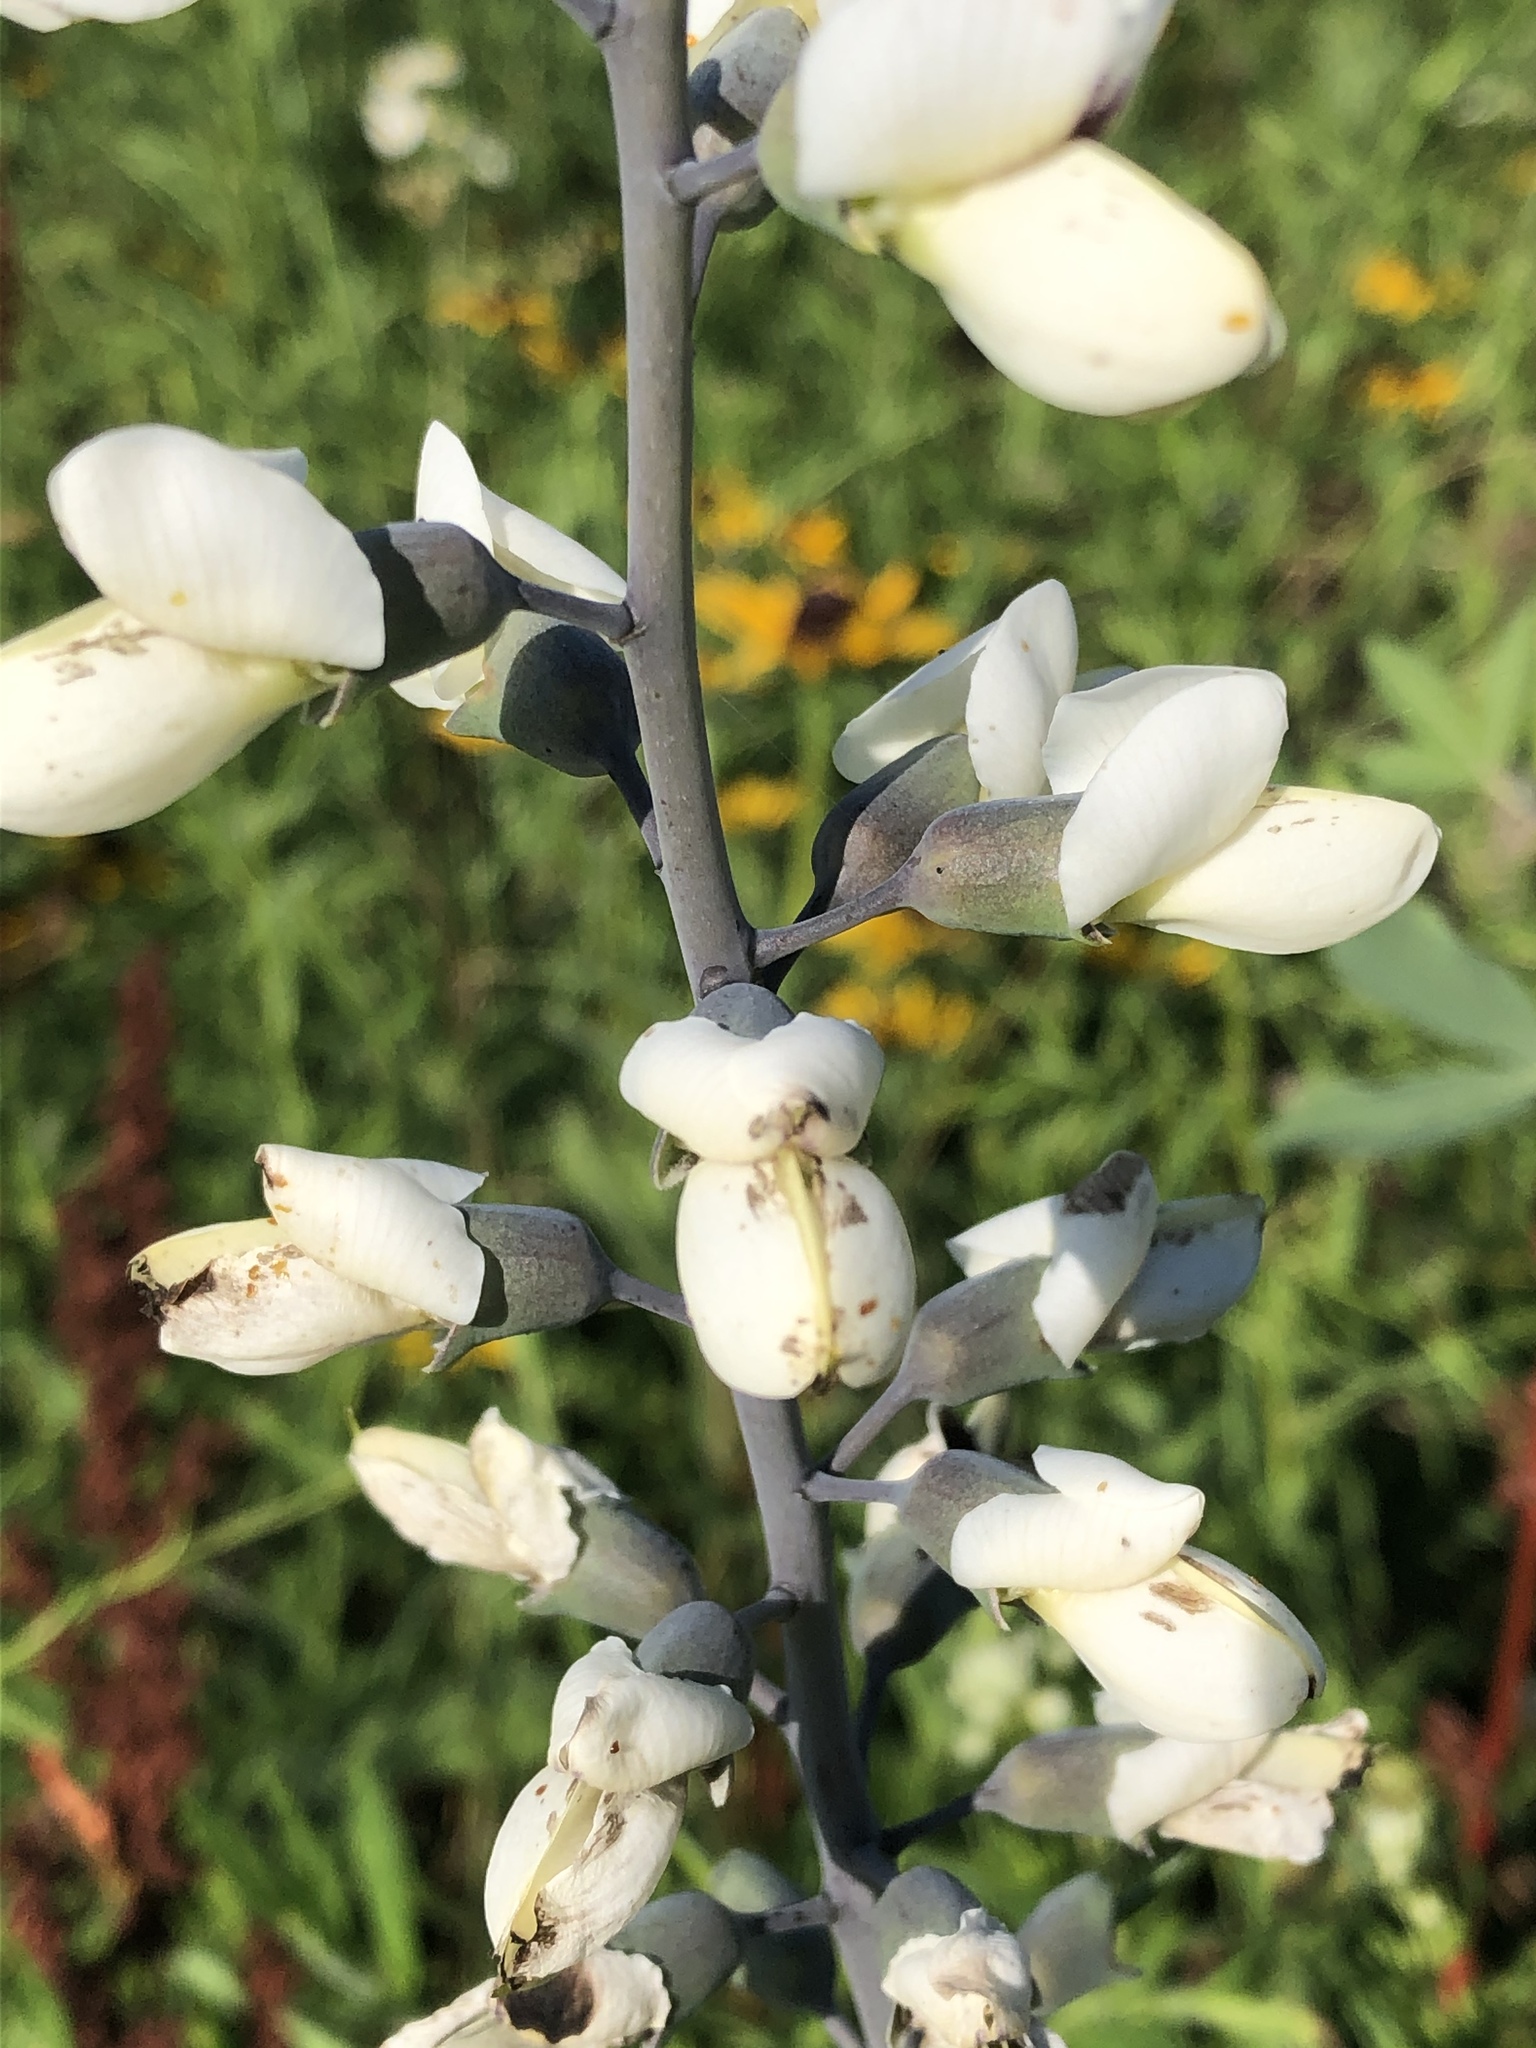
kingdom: Plantae
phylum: Tracheophyta
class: Magnoliopsida
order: Fabales
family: Fabaceae
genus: Baptisia
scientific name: Baptisia alba
